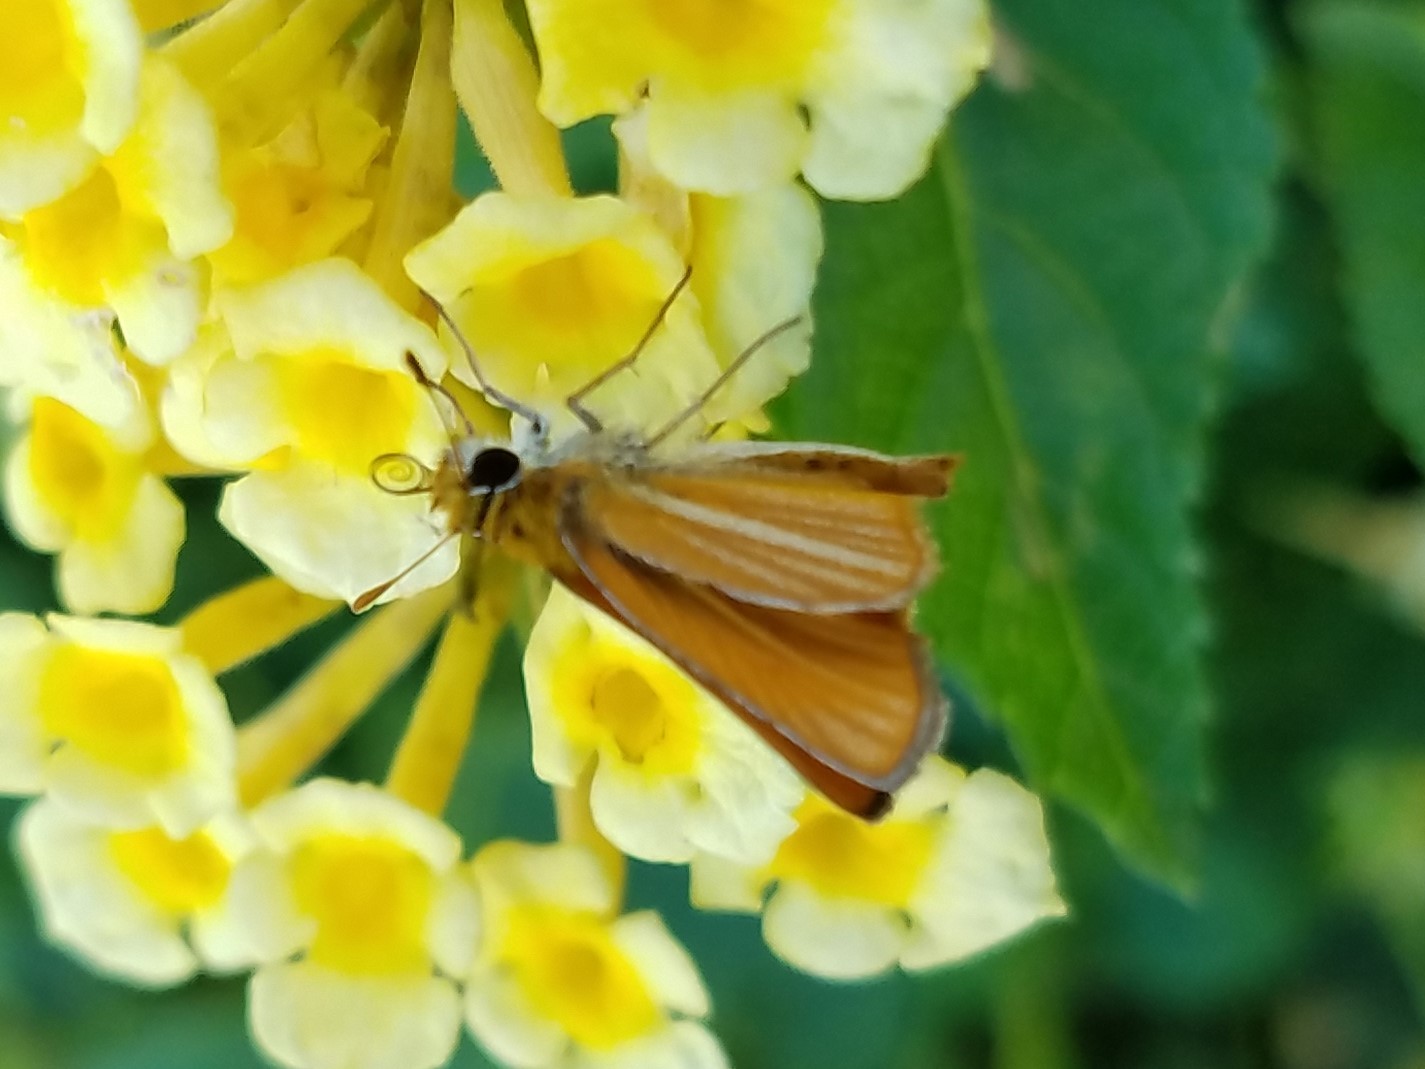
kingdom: Animalia
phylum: Arthropoda
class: Insecta
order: Lepidoptera
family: Hesperiidae
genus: Copaeodes
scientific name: Copaeodes minima
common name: Southern skipperling
